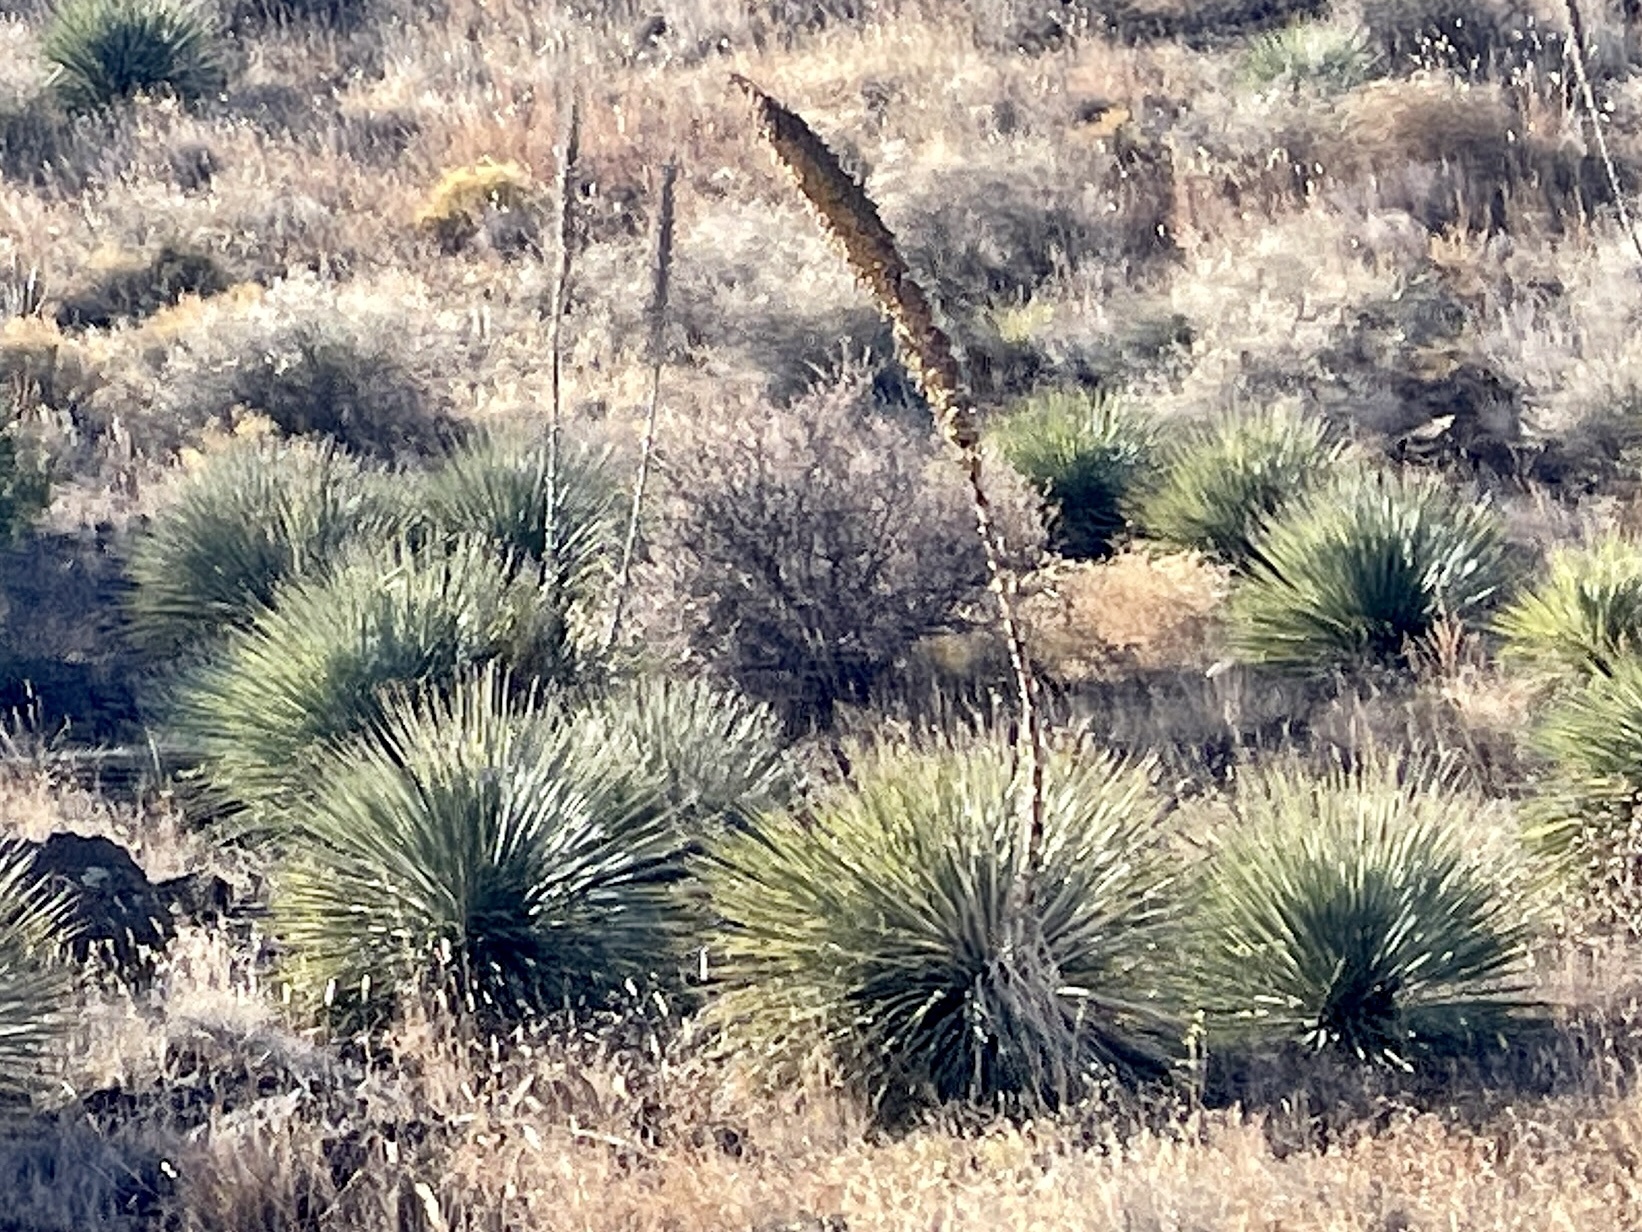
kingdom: Plantae
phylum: Tracheophyta
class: Liliopsida
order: Asparagales
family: Asparagaceae
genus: Dasylirion
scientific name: Dasylirion wheeleri
